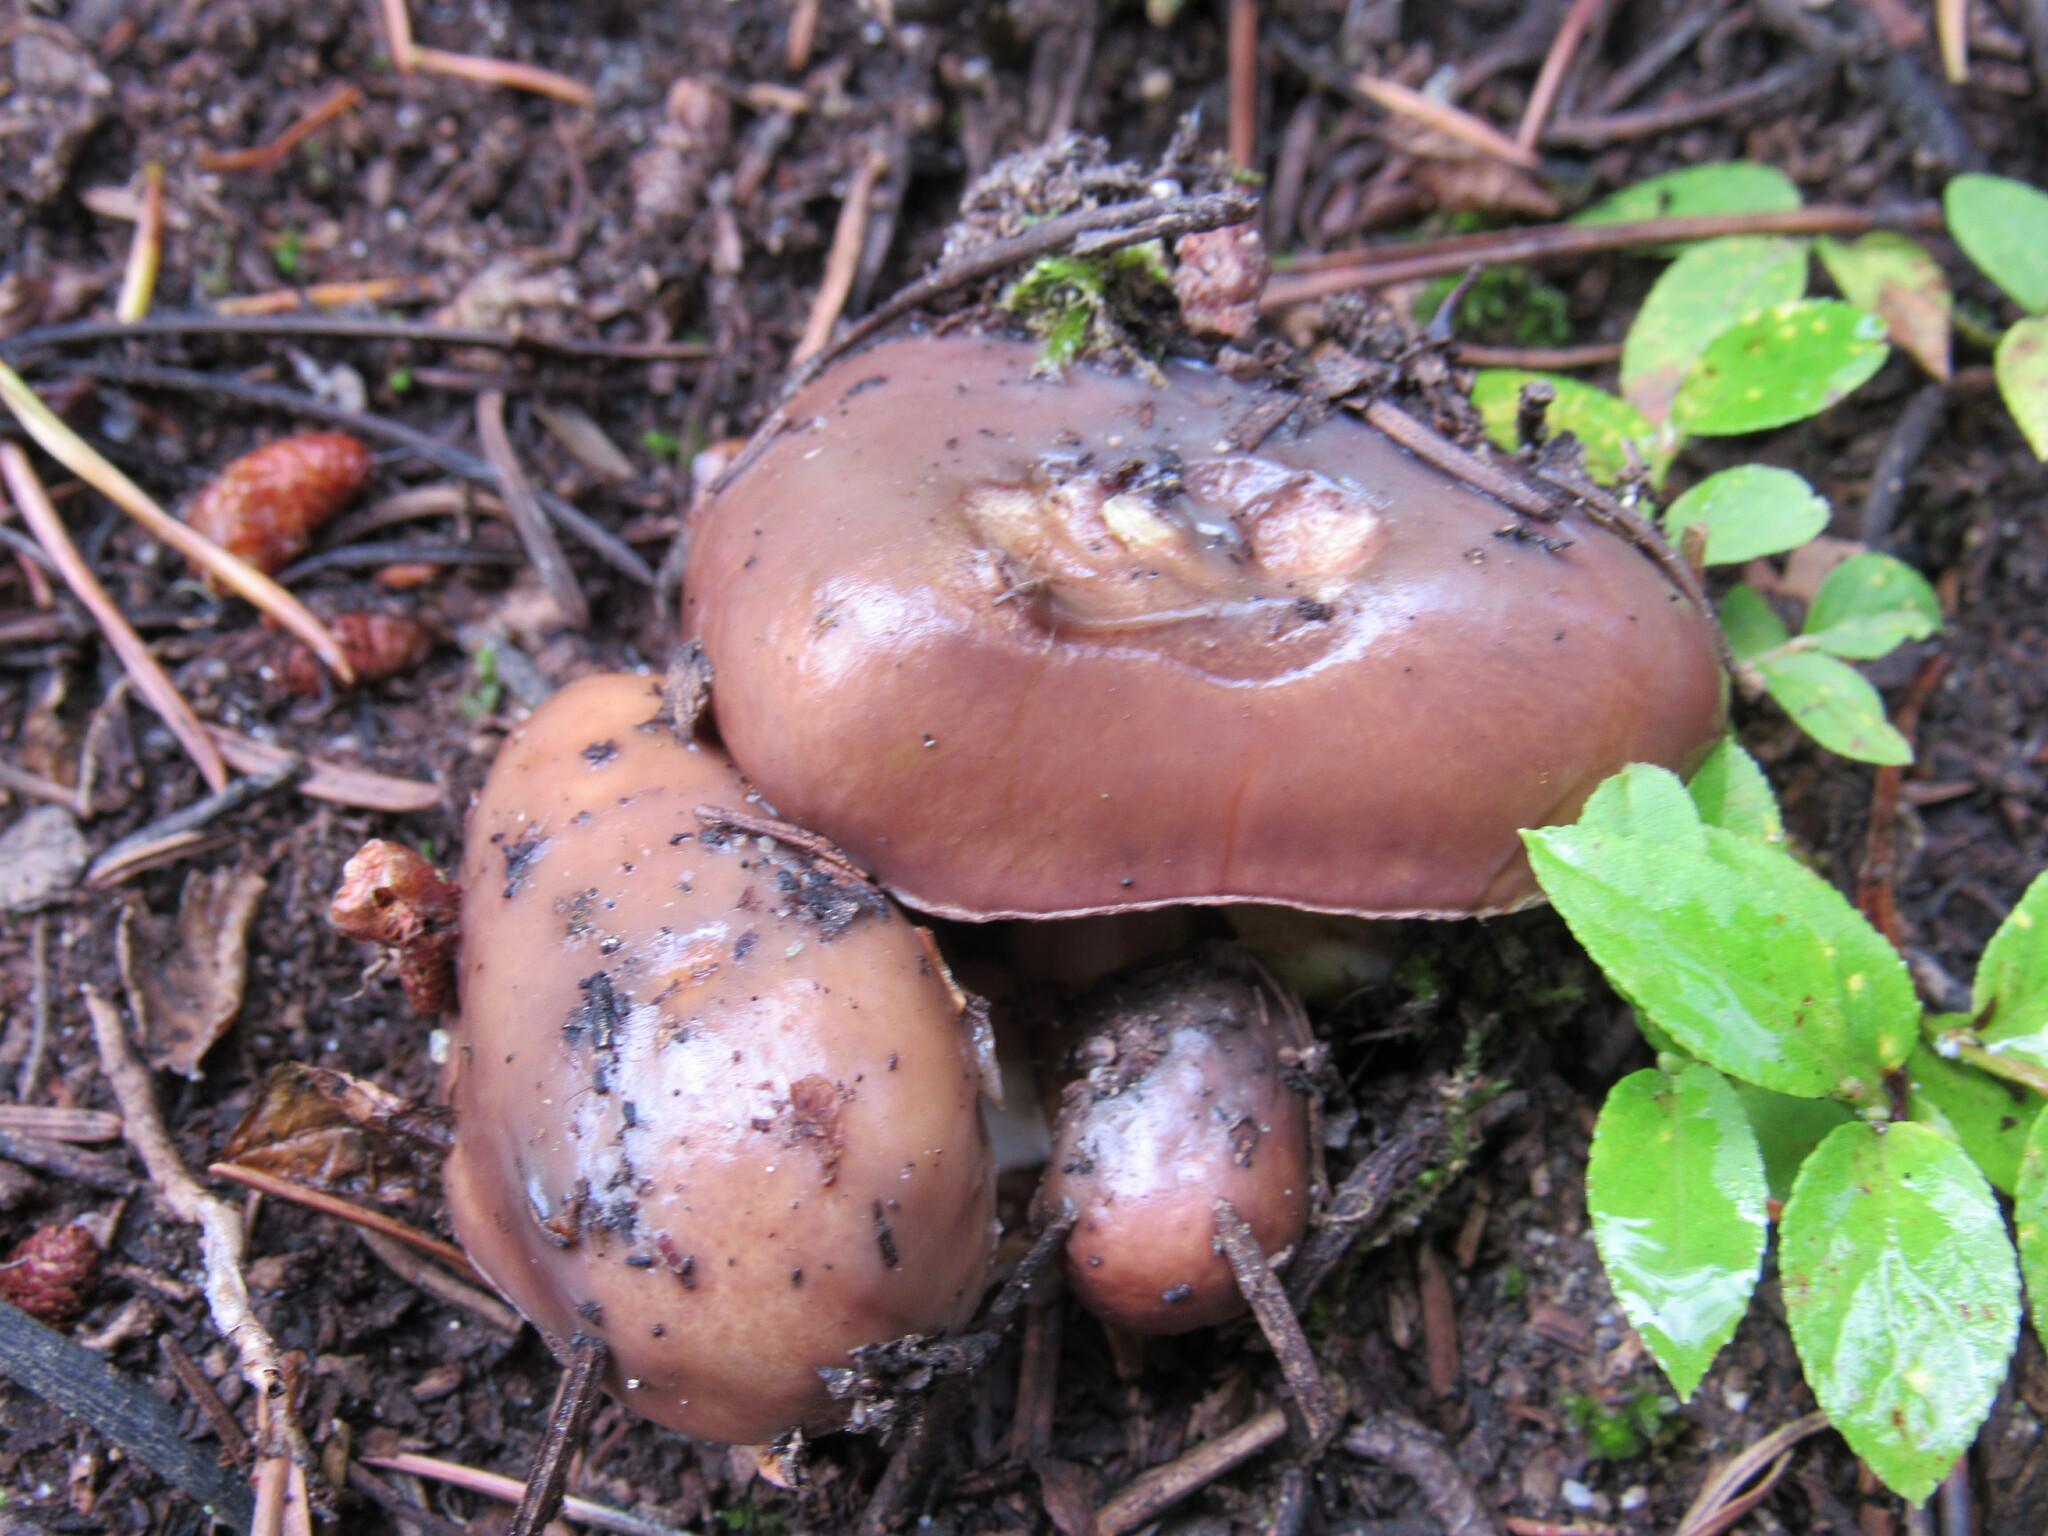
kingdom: Fungi
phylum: Basidiomycota
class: Agaricomycetes
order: Boletales
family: Suillaceae
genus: Suillus
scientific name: Suillus brevipes
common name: Short-stalked suillus
